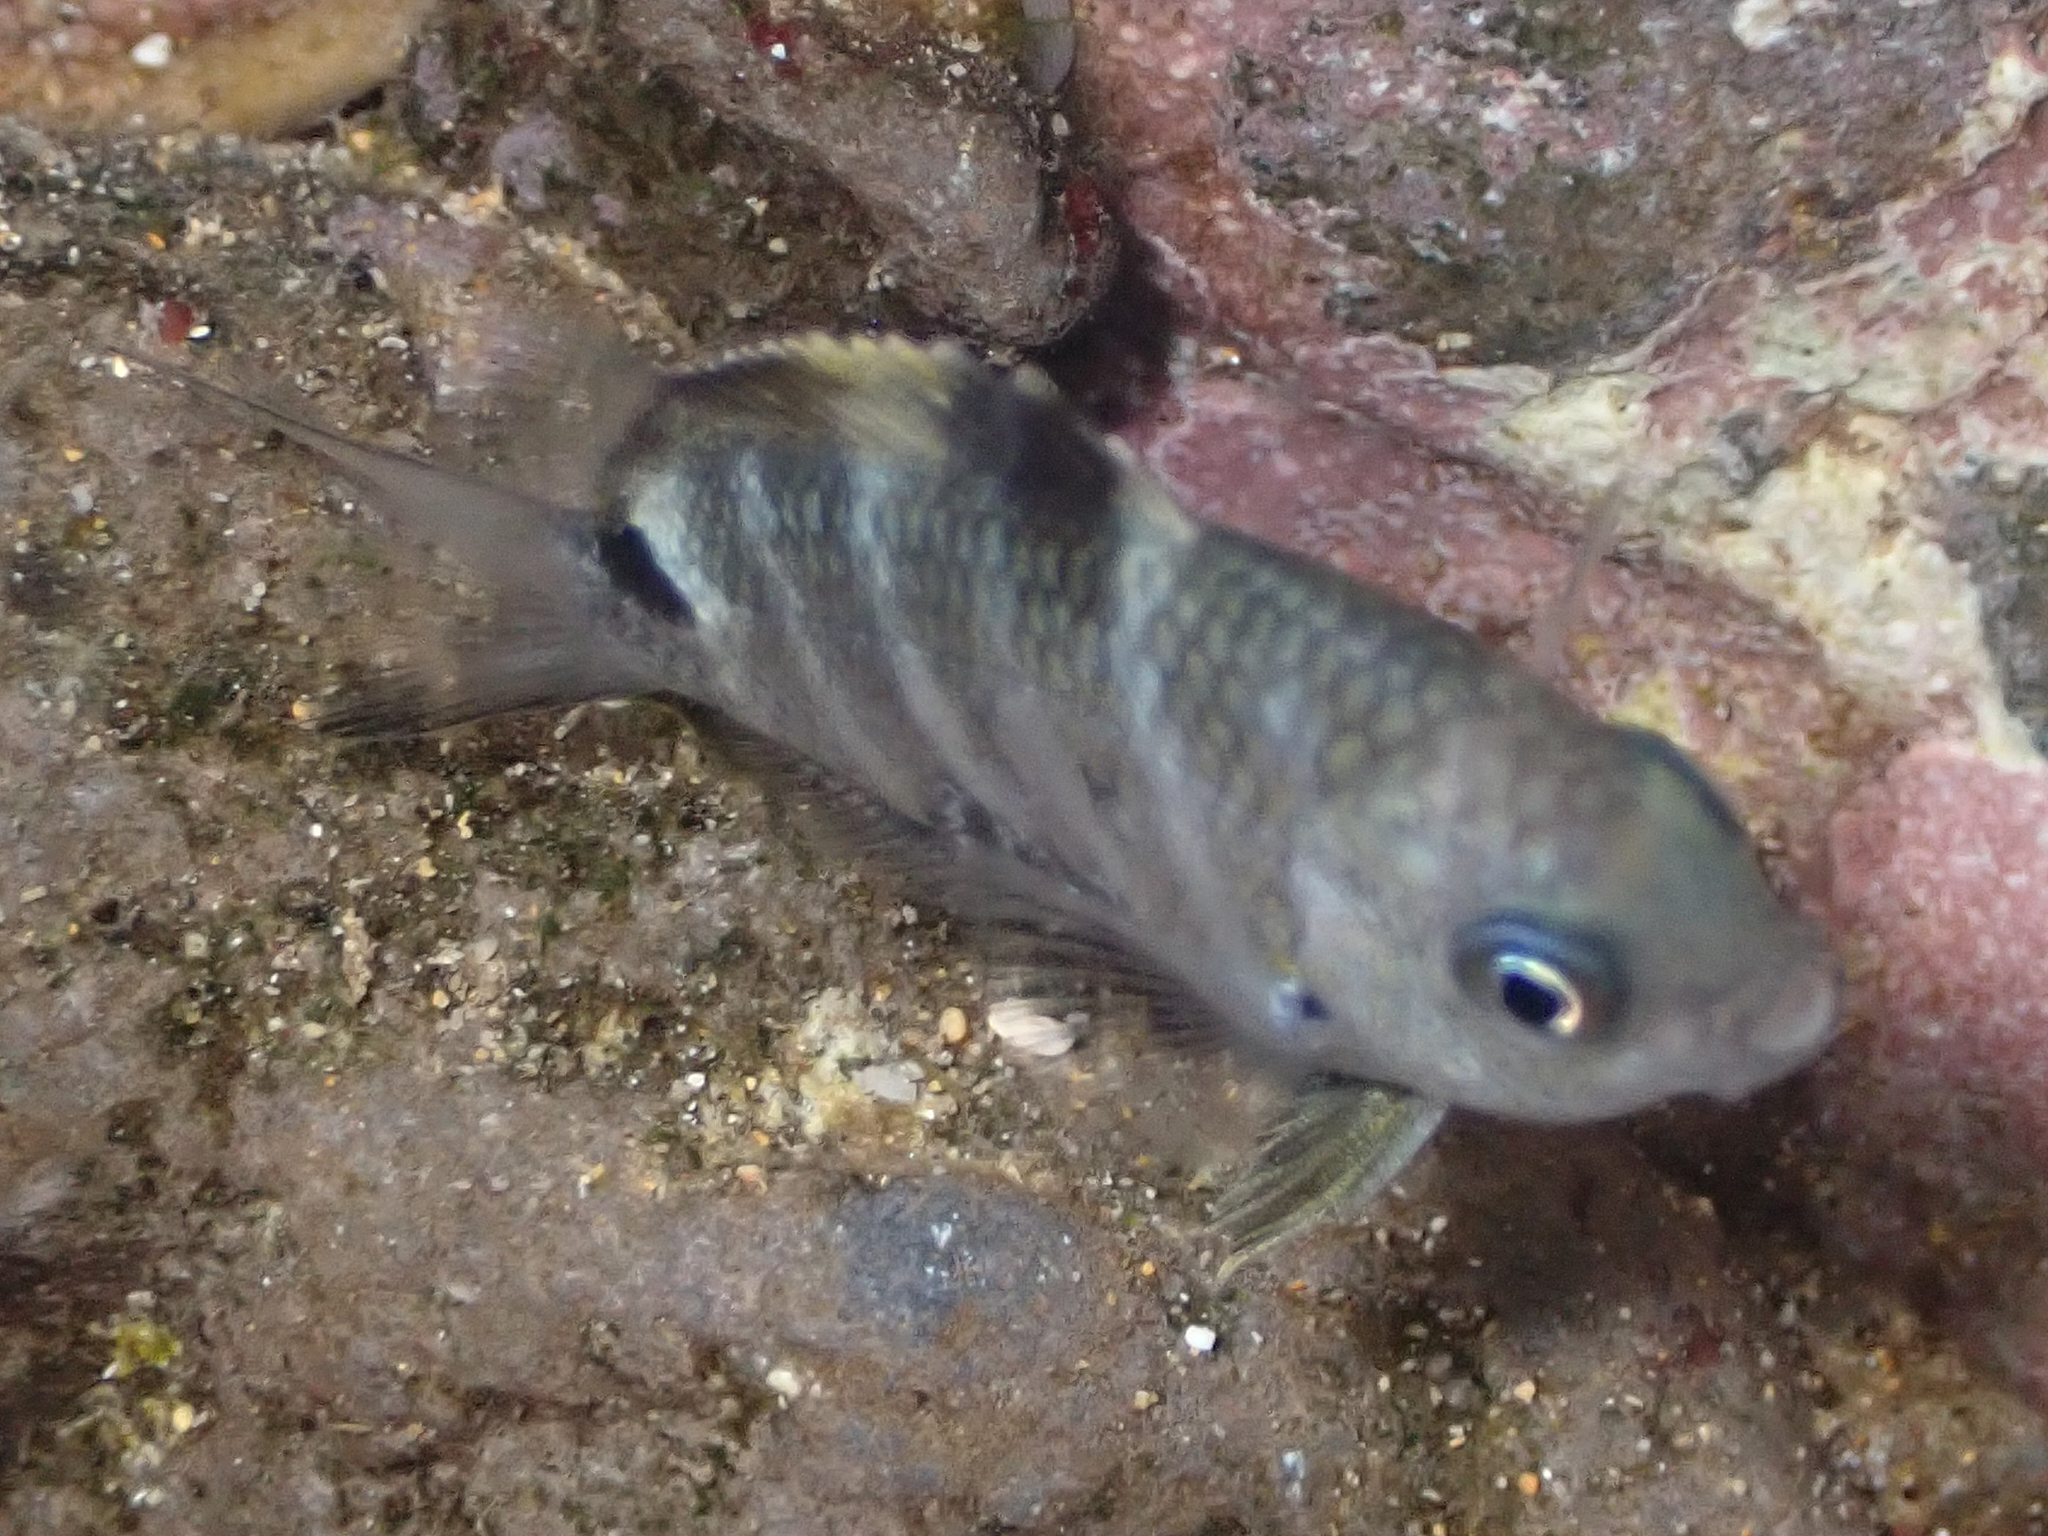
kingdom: Animalia
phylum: Chordata
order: Perciformes
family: Pomacentridae
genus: Abudefduf
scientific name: Abudefduf sordidus
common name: Blackspot sergeant
